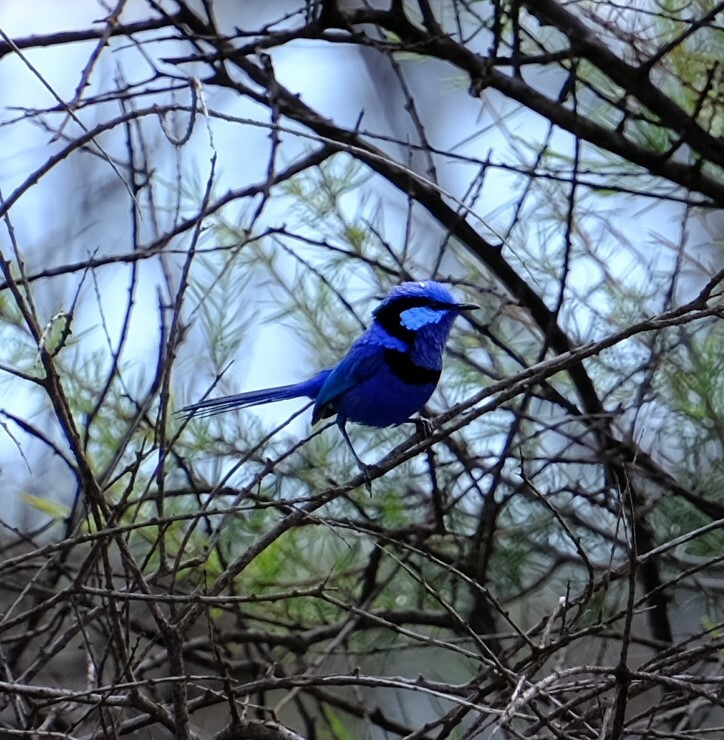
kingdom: Animalia
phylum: Chordata
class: Aves
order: Passeriformes
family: Maluridae
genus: Malurus
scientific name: Malurus splendens
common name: Splendid fairywren
